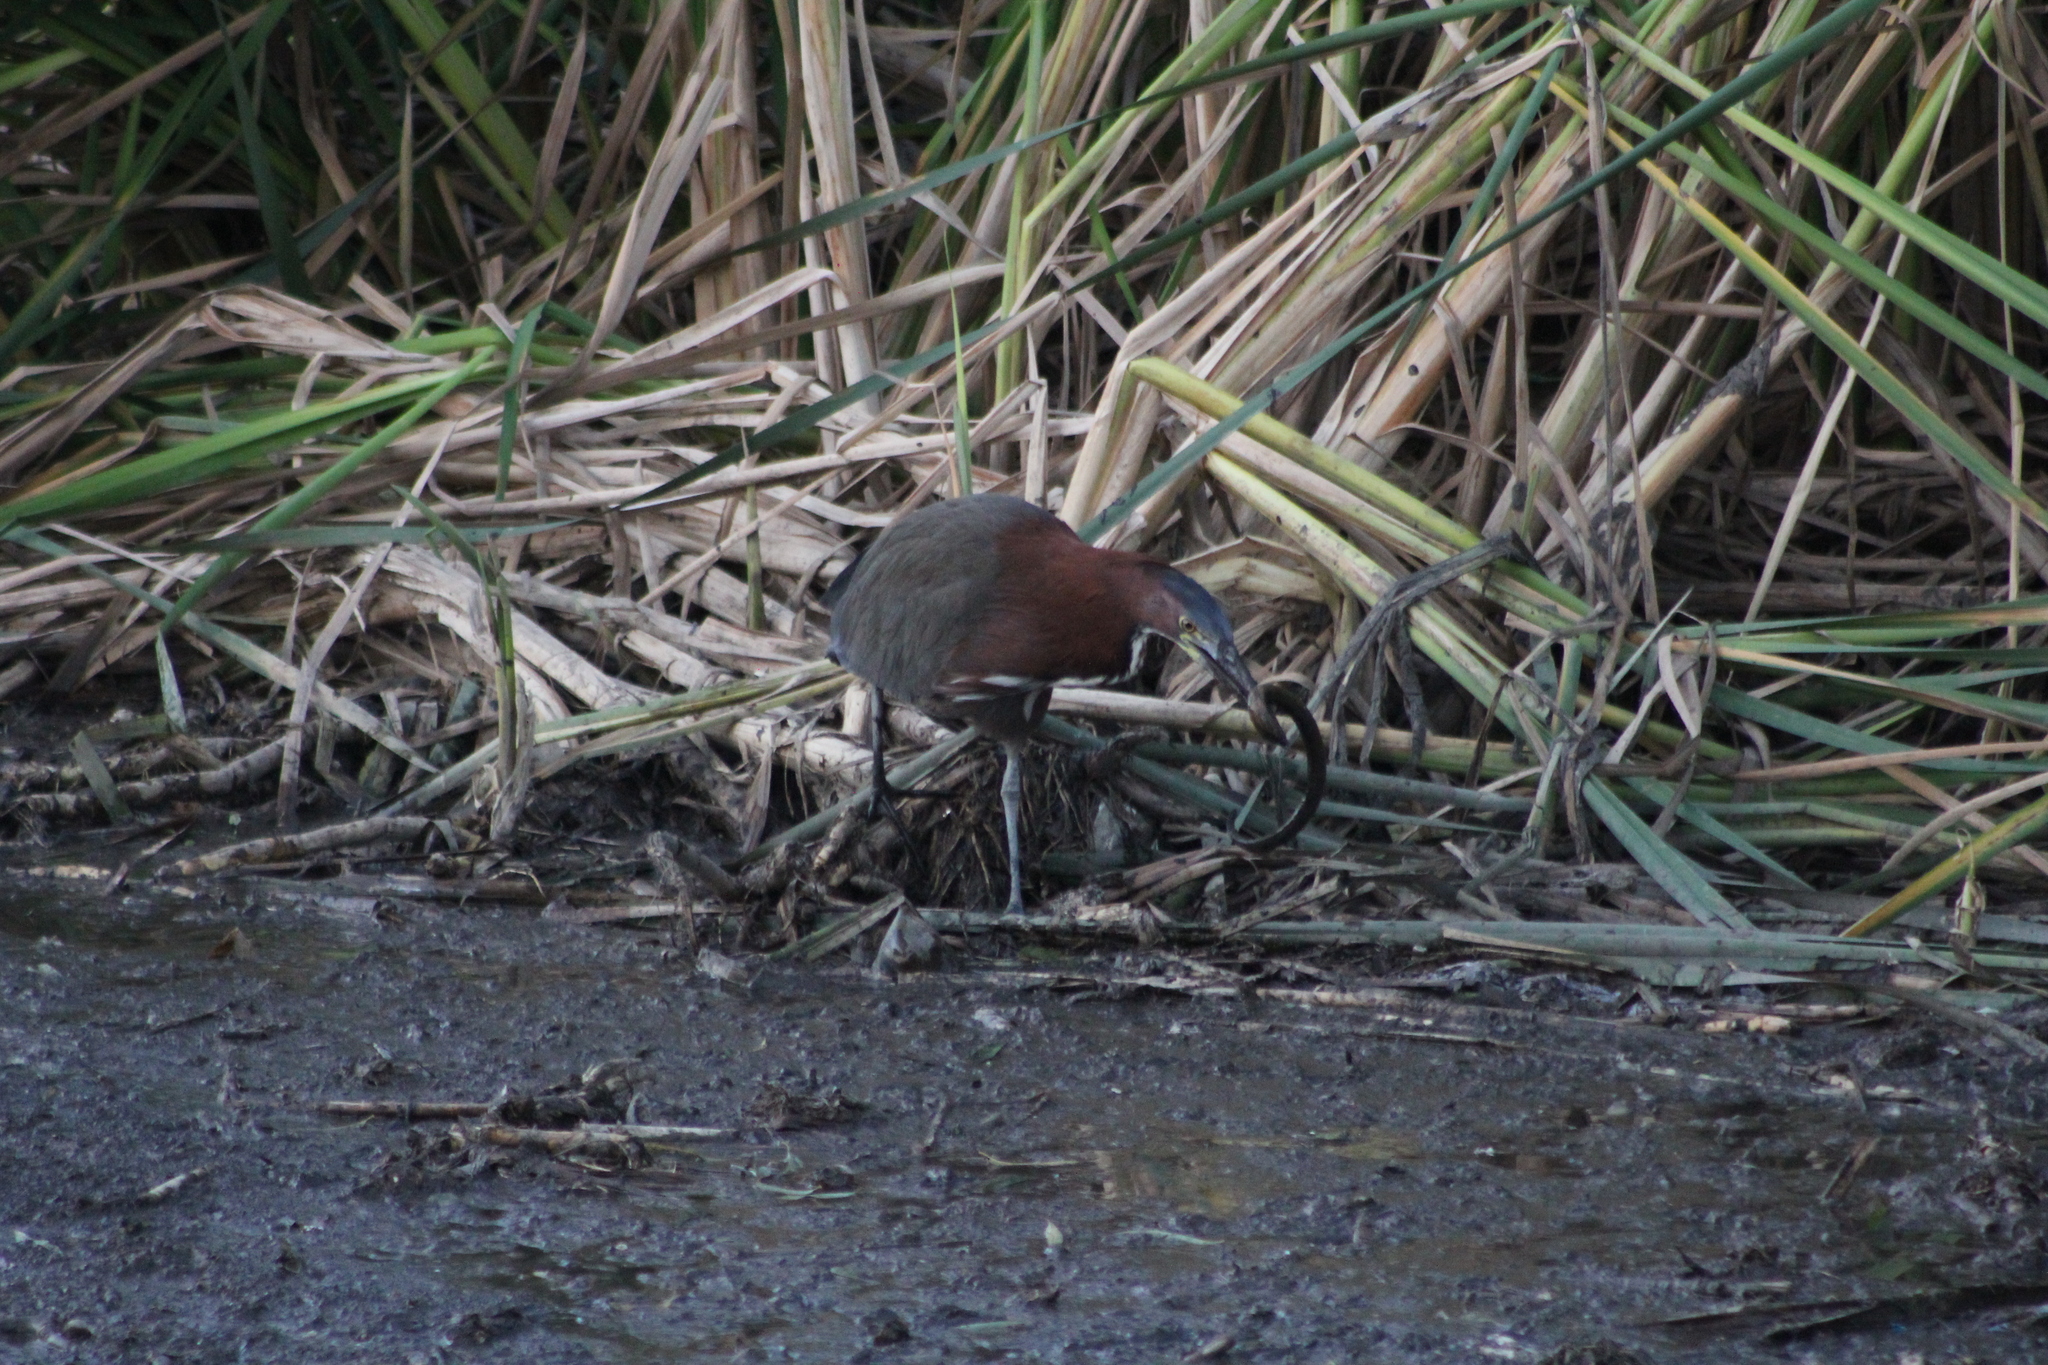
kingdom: Animalia
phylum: Chordata
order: Synbranchiformes
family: Synbranchidae
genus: Synbranchus
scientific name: Synbranchus marmoratus
